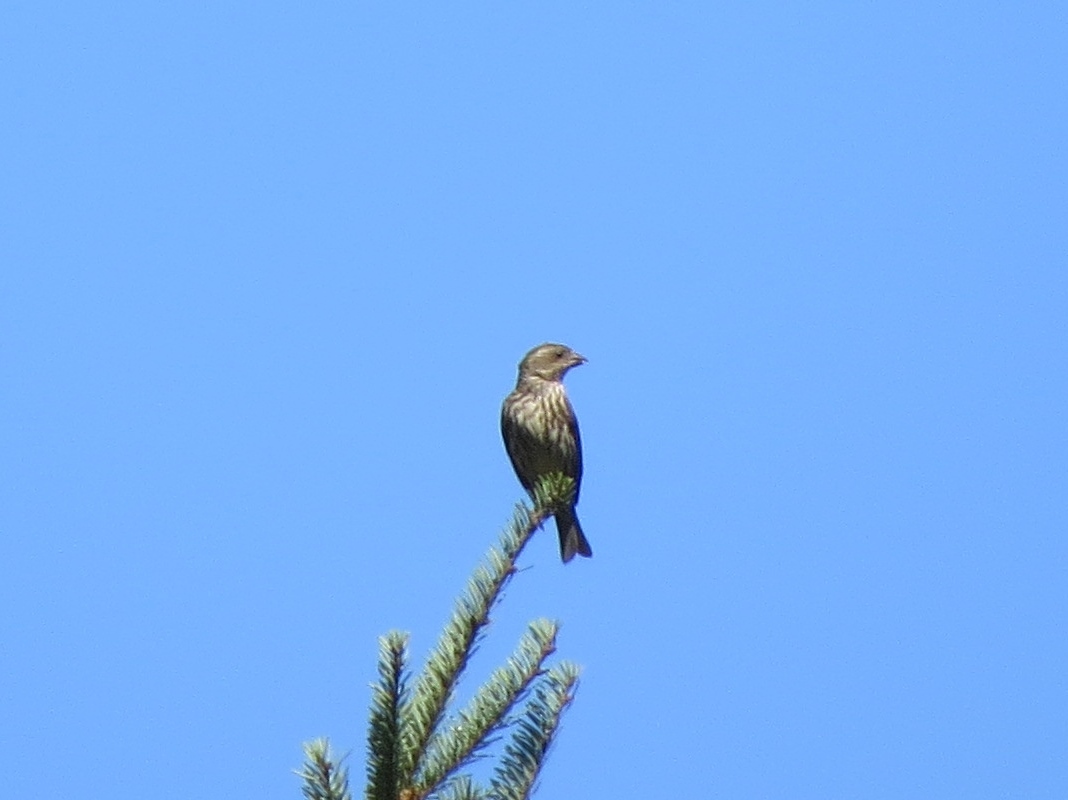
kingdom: Animalia
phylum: Chordata
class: Aves
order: Passeriformes
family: Fringillidae
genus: Haemorhous
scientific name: Haemorhous purpureus
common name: Purple finch
